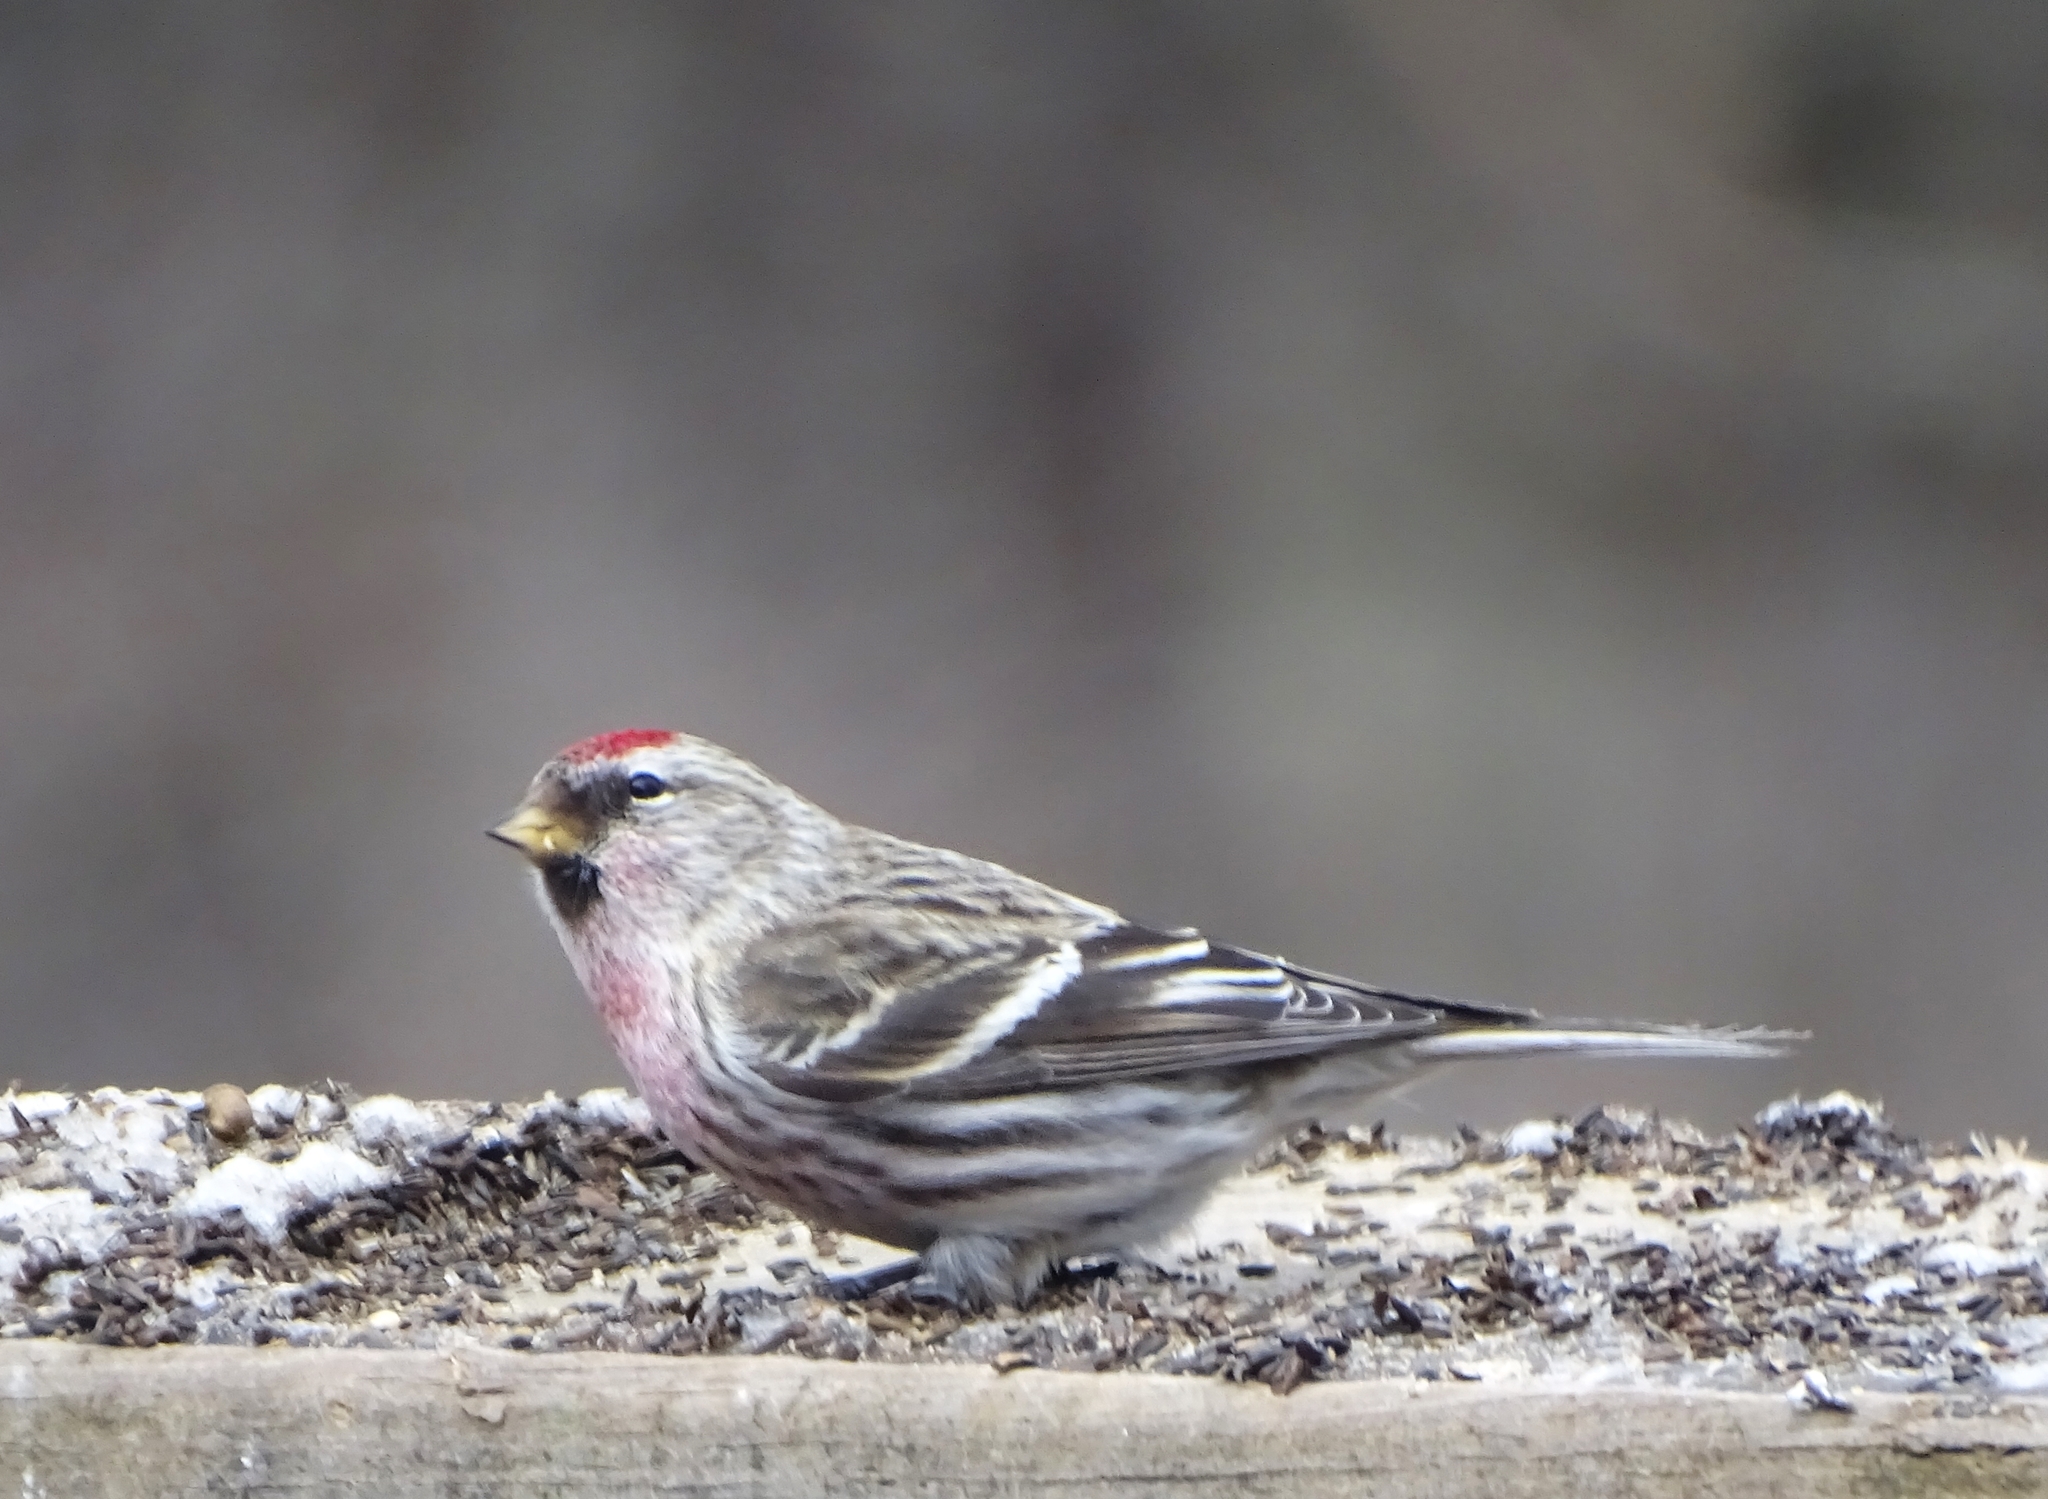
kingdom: Animalia
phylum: Chordata
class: Aves
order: Passeriformes
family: Fringillidae
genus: Acanthis
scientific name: Acanthis flammea
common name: Common redpoll
